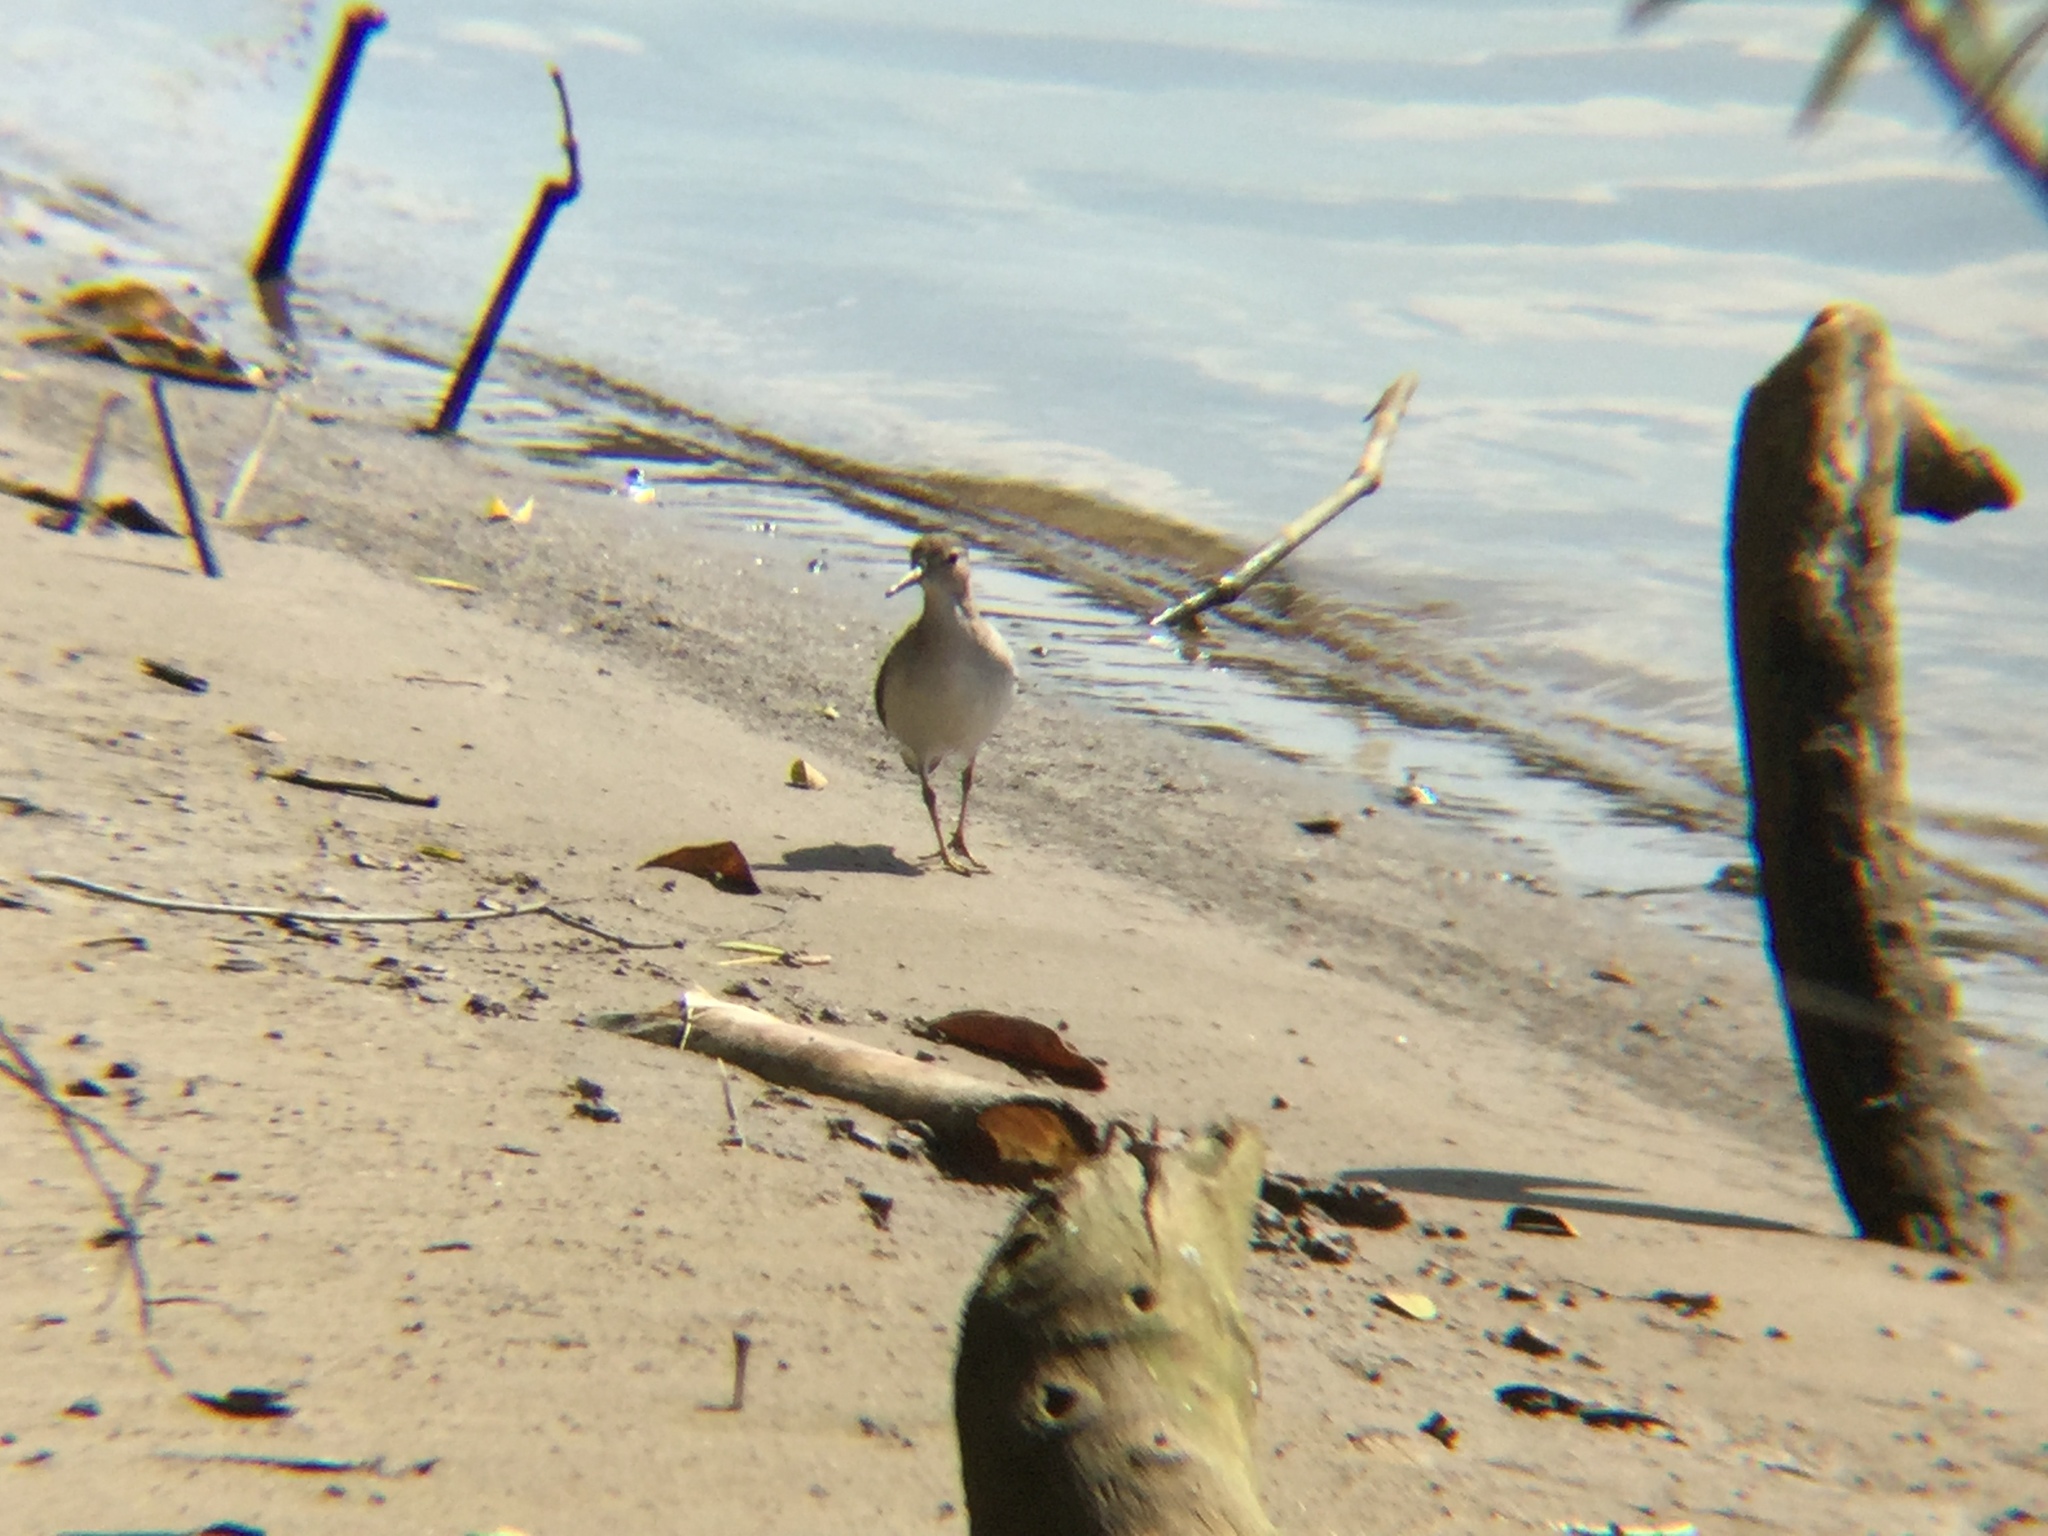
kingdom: Animalia
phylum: Chordata
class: Aves
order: Charadriiformes
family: Scolopacidae
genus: Actitis
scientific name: Actitis macularius
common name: Spotted sandpiper
